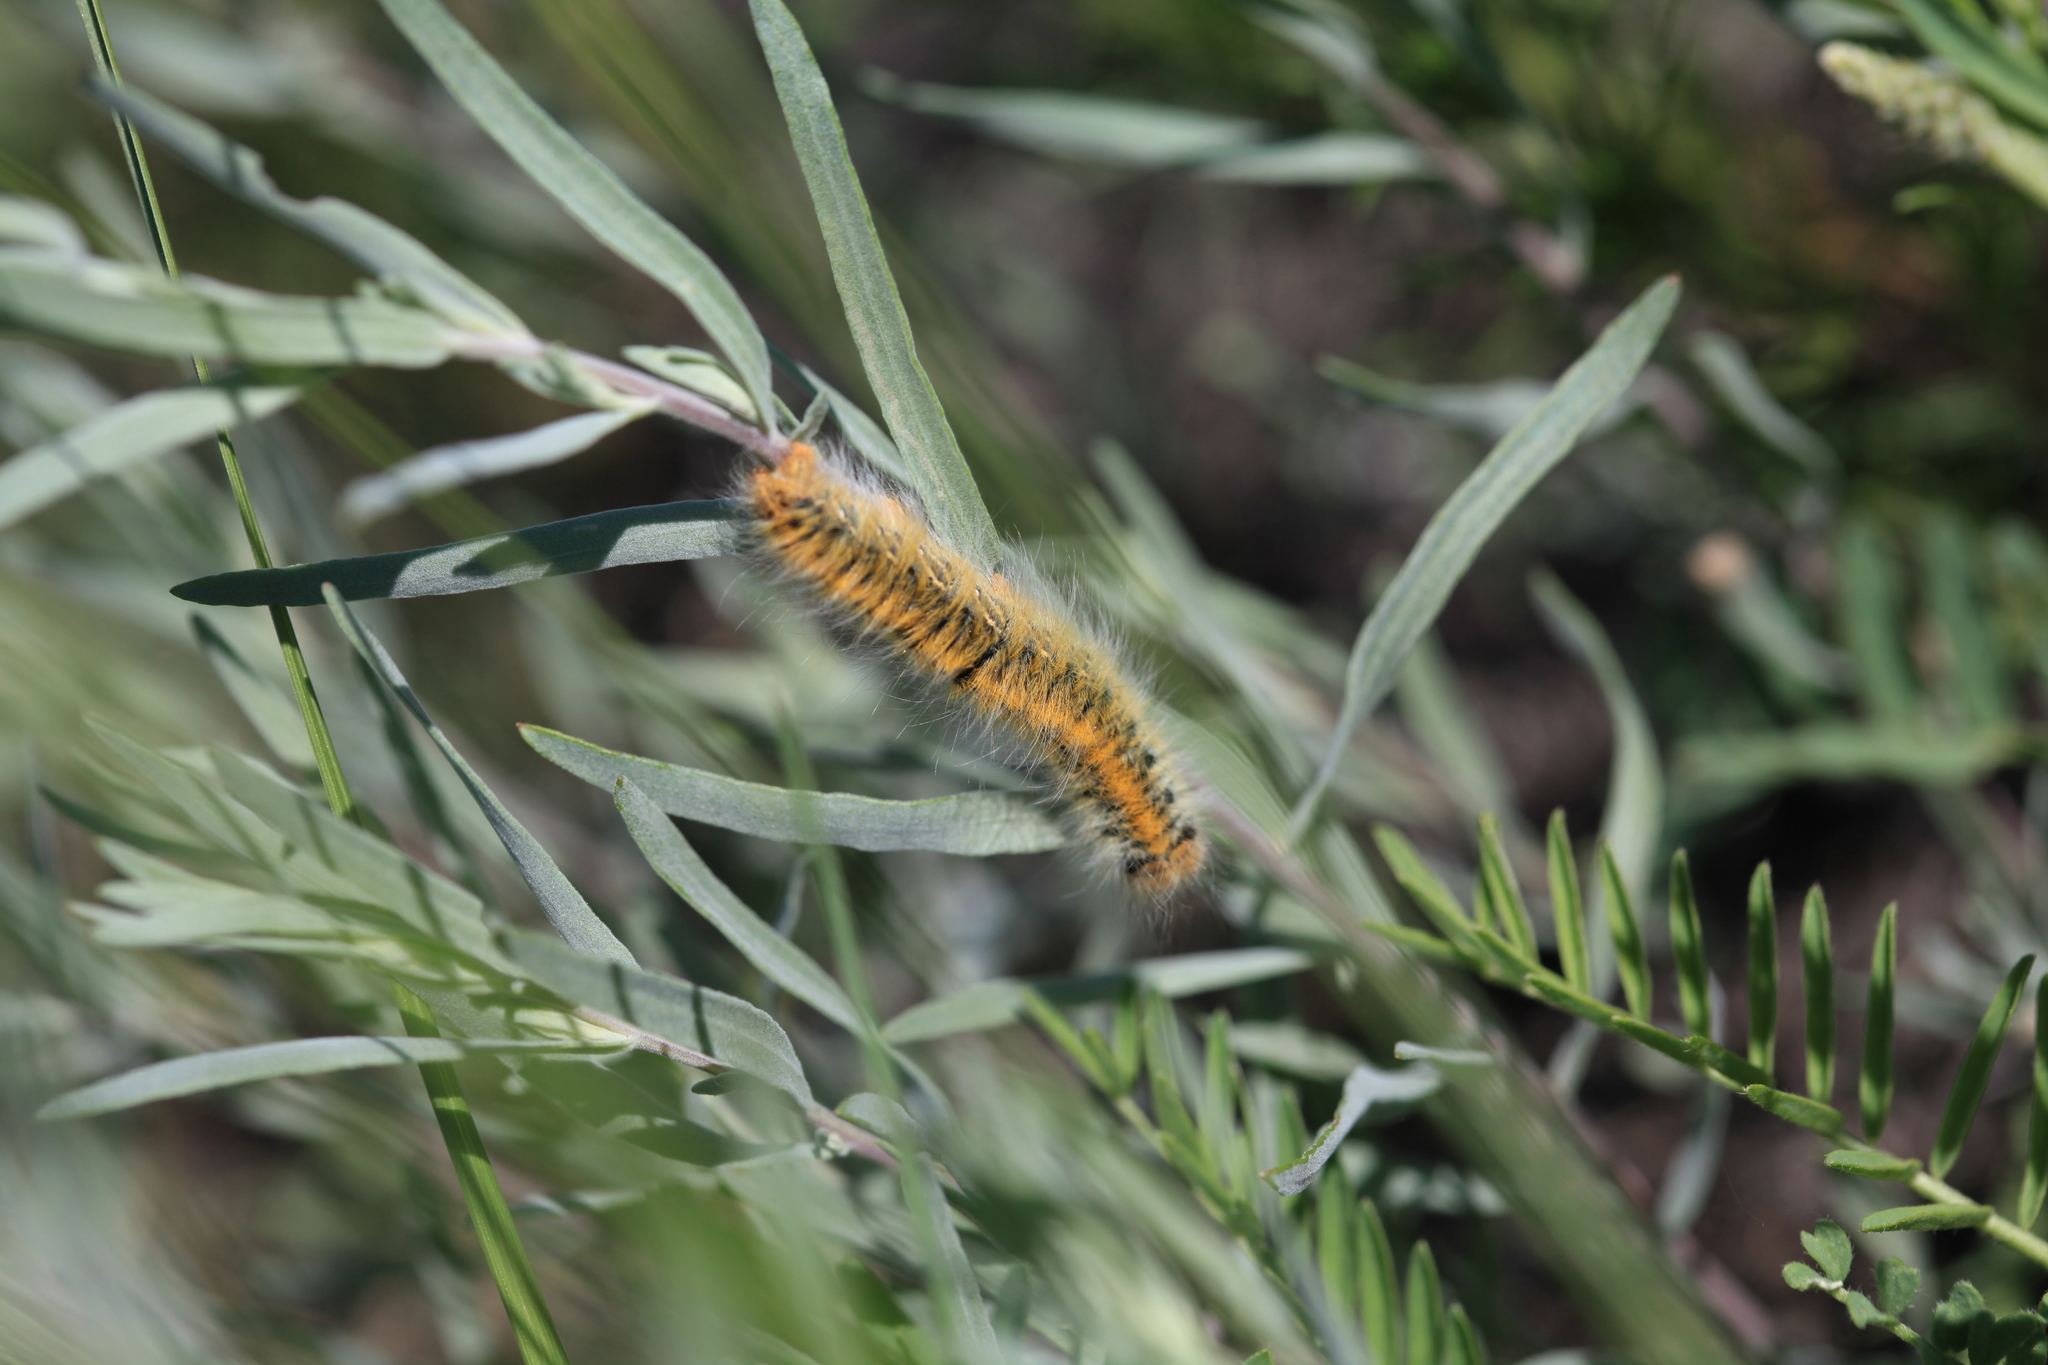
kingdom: Animalia
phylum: Arthropoda
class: Insecta
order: Lepidoptera
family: Lasiocampidae
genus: Lasiocampa
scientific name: Lasiocampa trifolii
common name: Grass eggar
